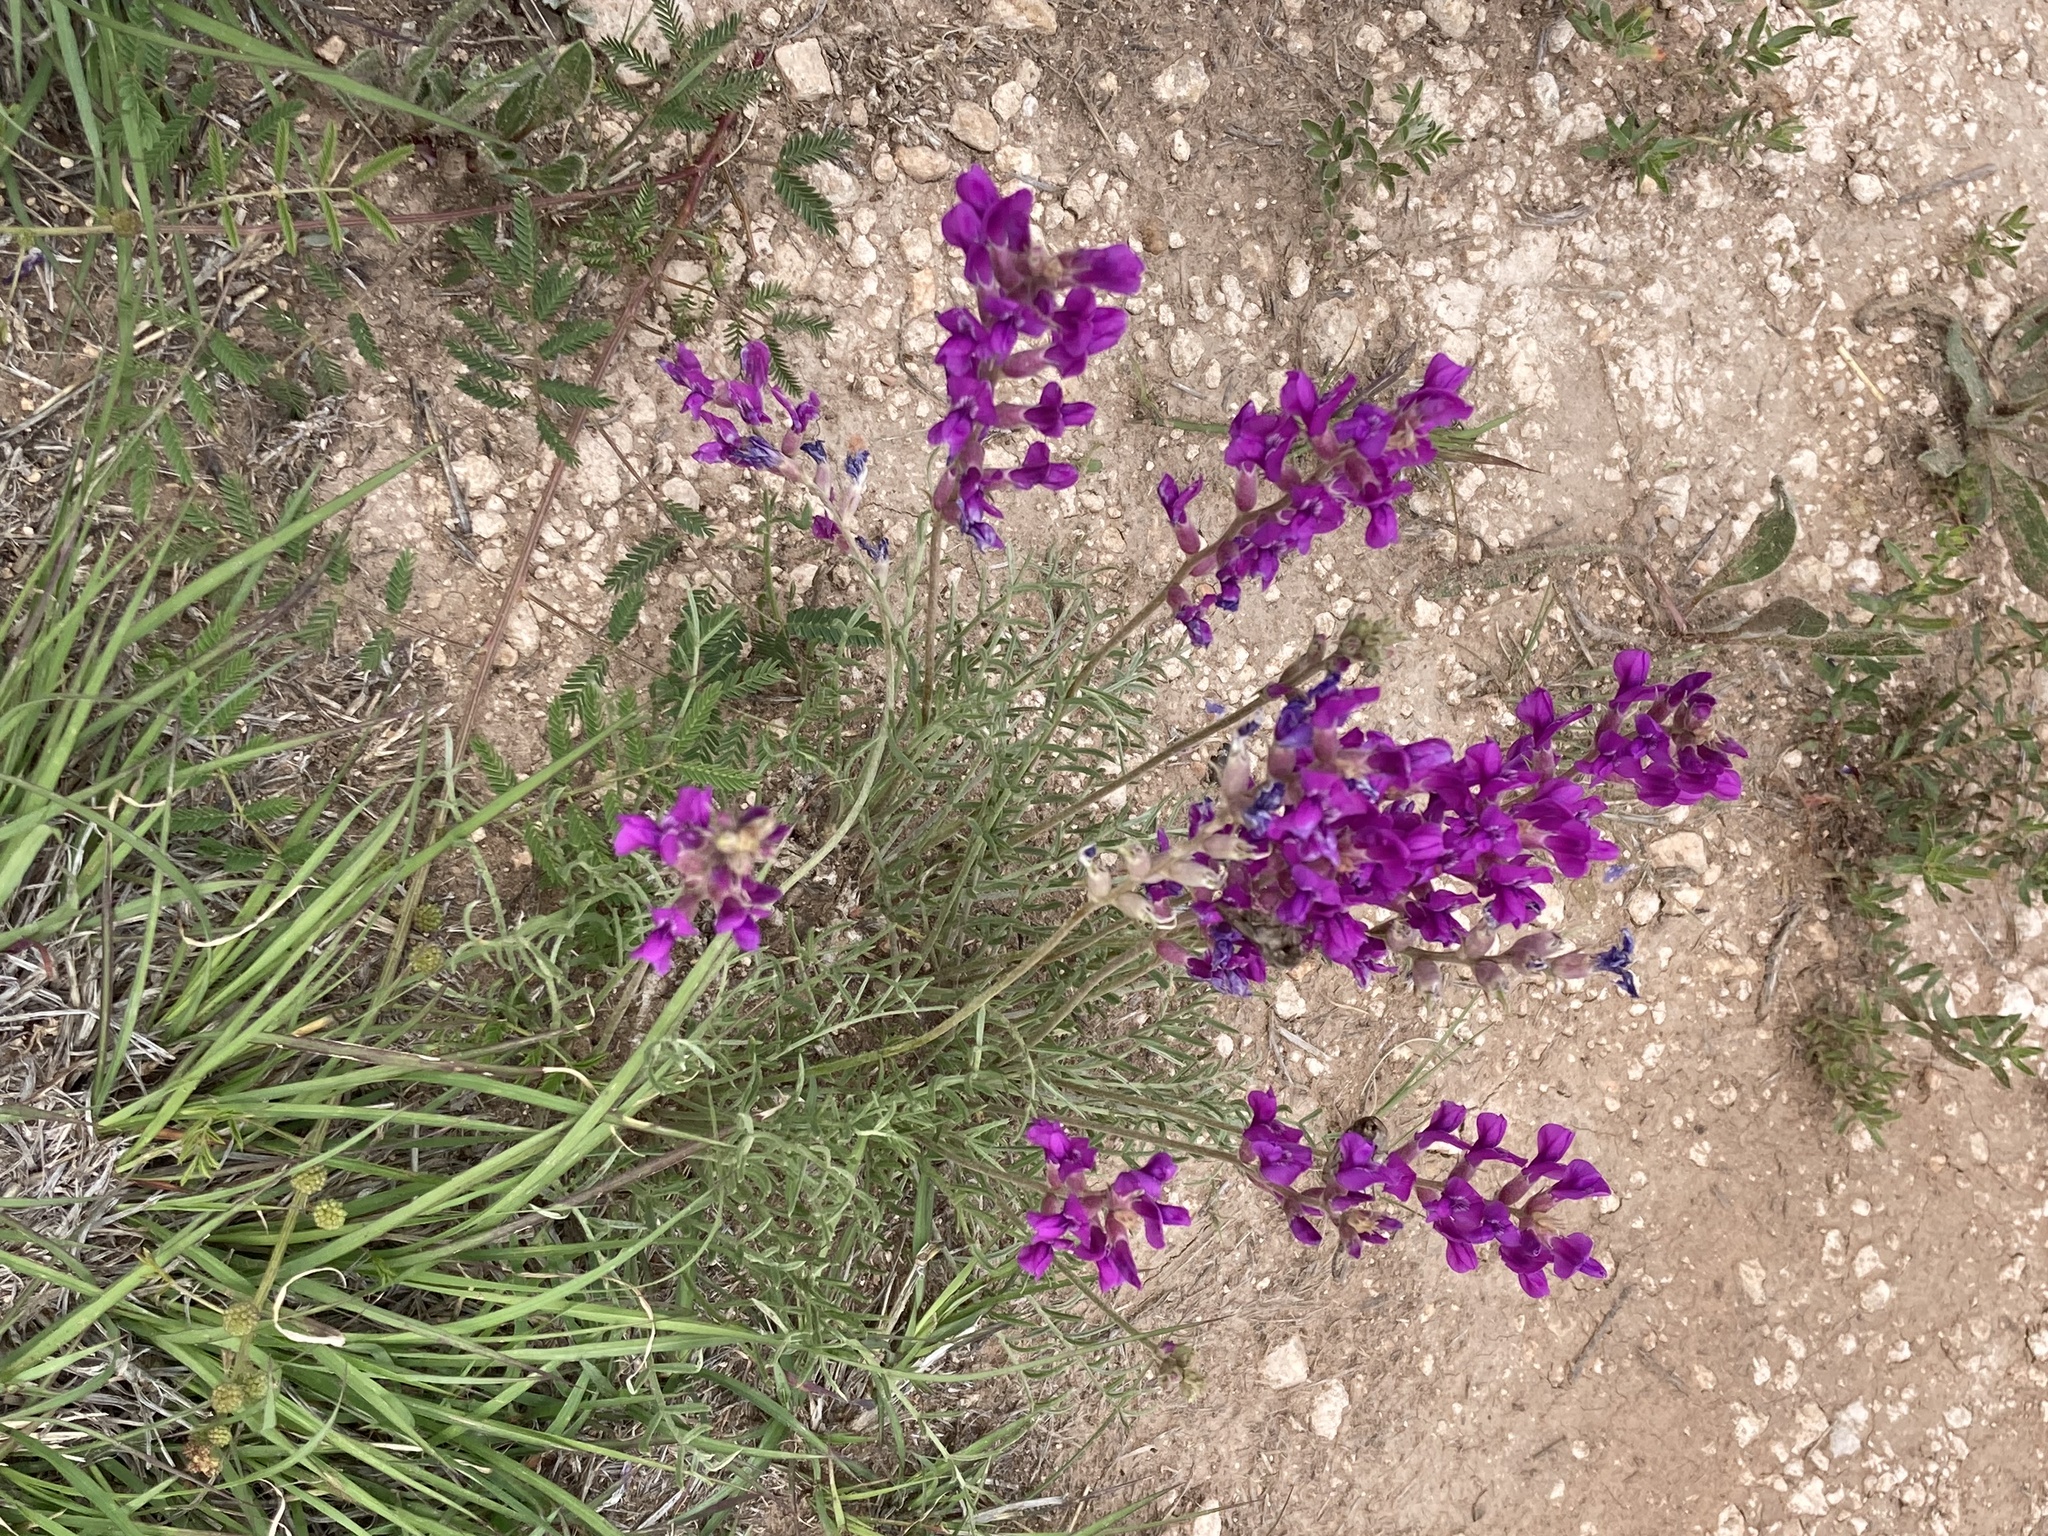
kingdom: Plantae
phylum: Tracheophyta
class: Magnoliopsida
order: Fabales
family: Fabaceae
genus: Oxytropis
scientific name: Oxytropis lambertii
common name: Purple locoweed
